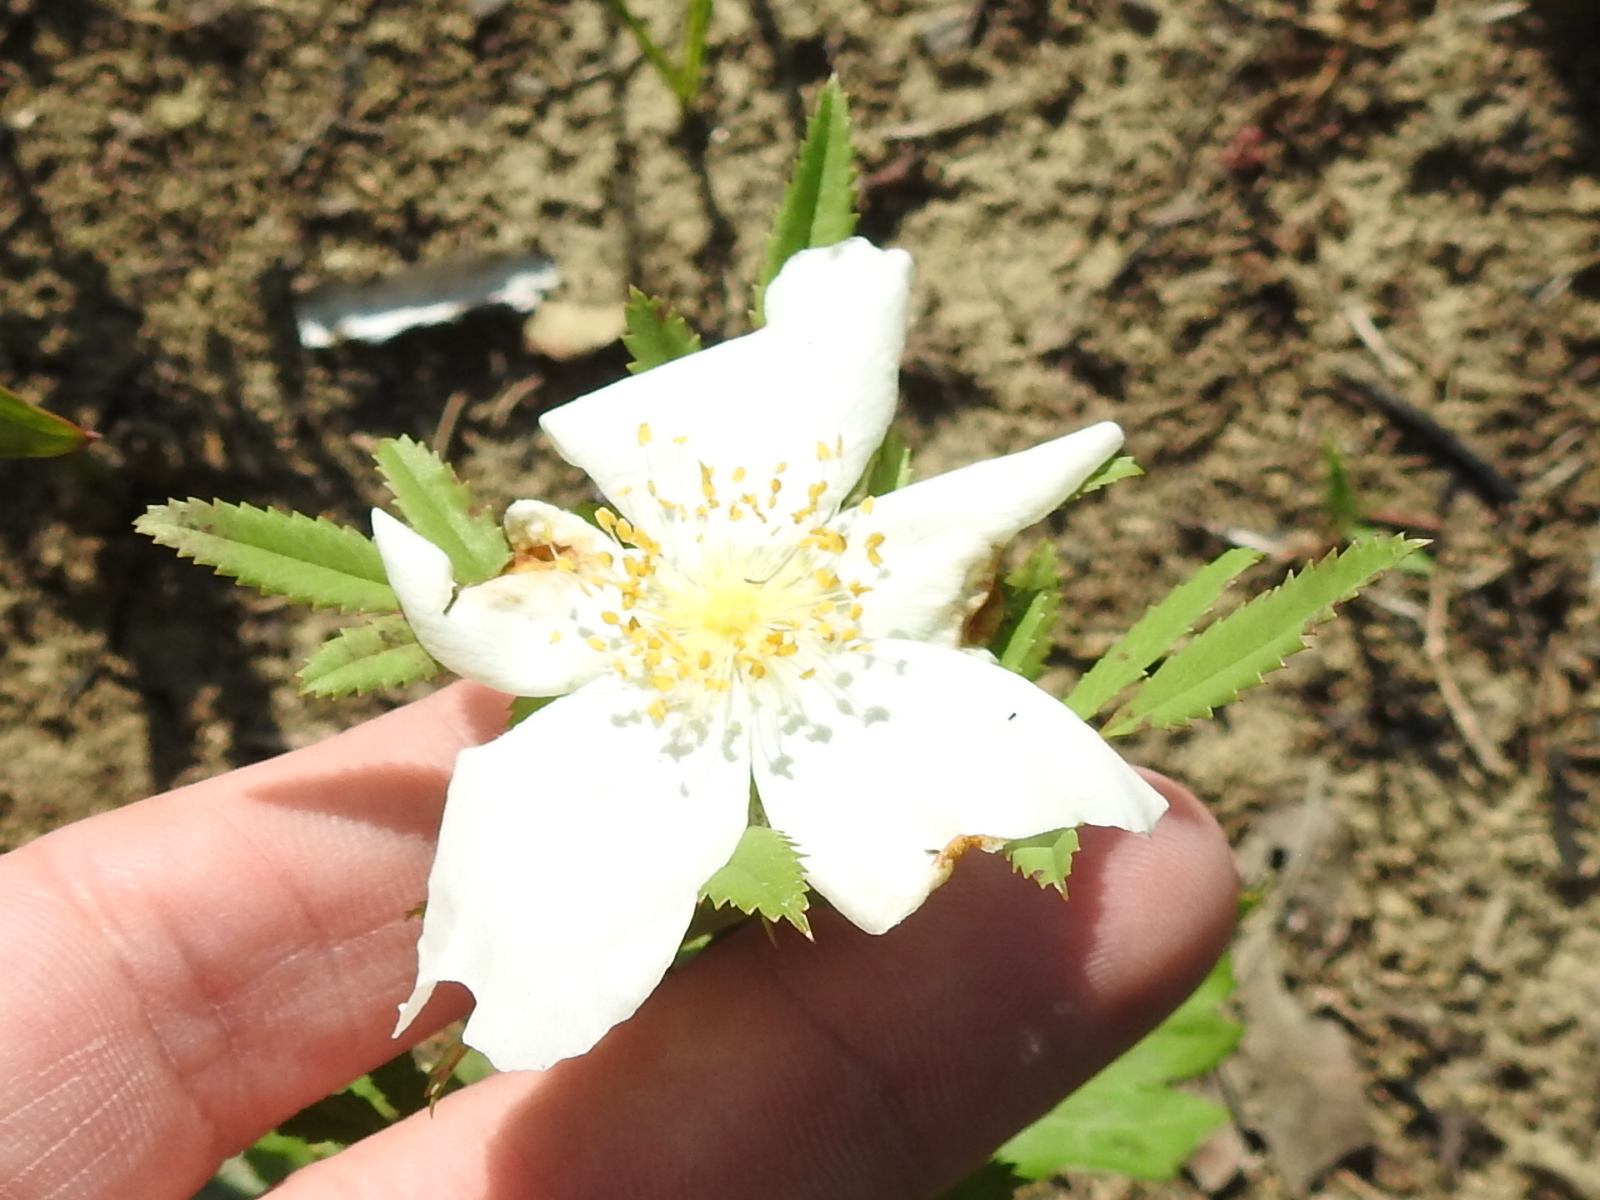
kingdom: Plantae
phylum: Tracheophyta
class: Magnoliopsida
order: Rosales
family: Rosaceae
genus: Rosa
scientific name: Rosa foliolosa
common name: White prairie rose
